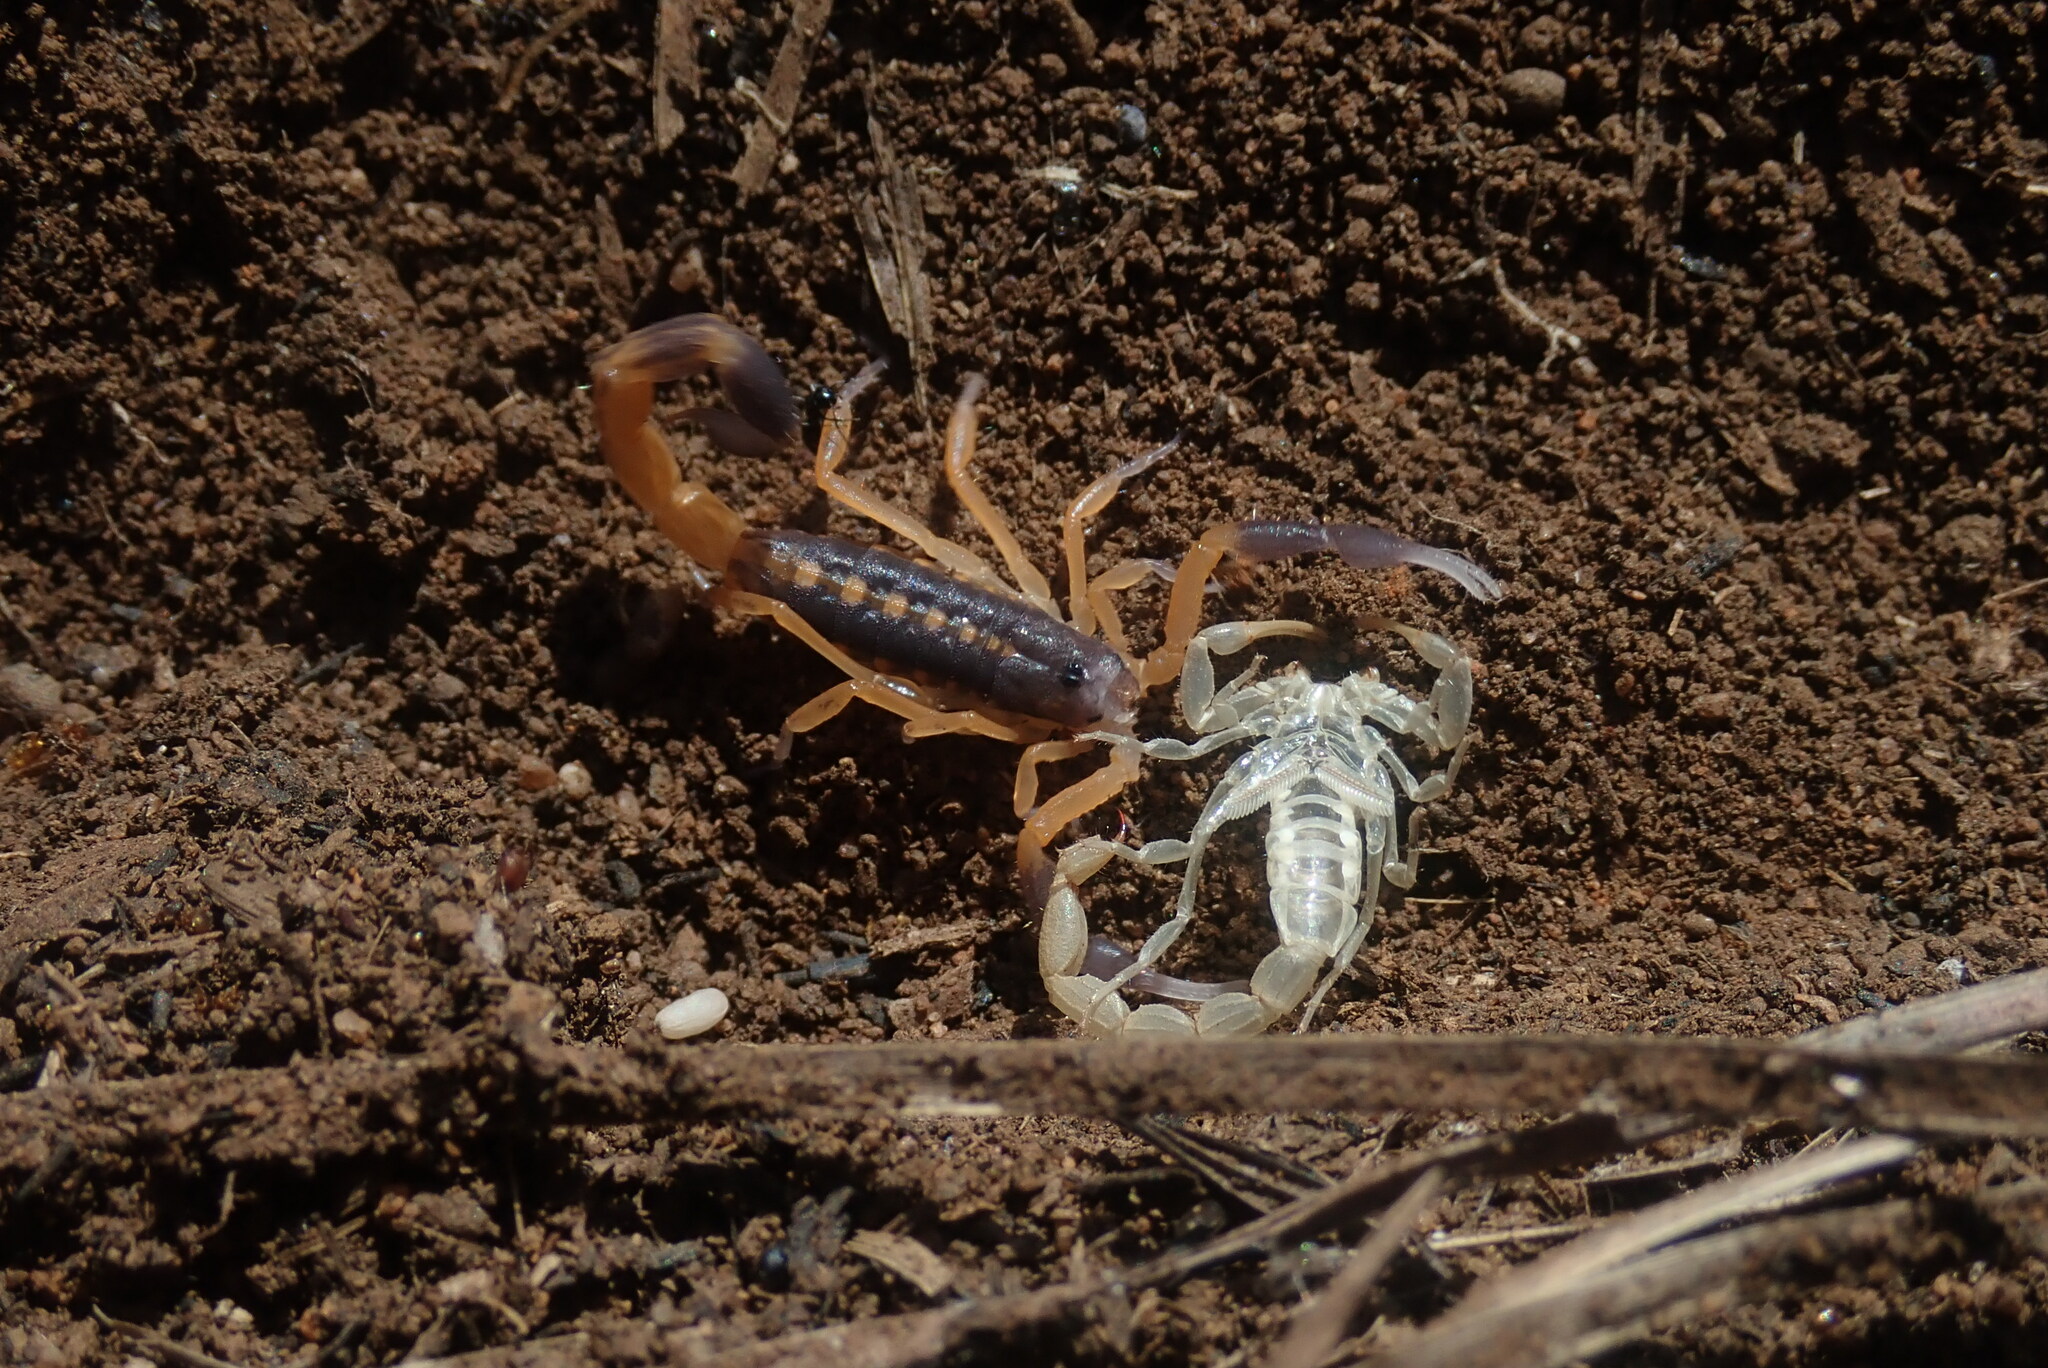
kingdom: Animalia
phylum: Arthropoda
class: Arachnida
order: Scorpiones
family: Buthidae
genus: Uroplectes
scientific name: Uroplectes triangulifer
